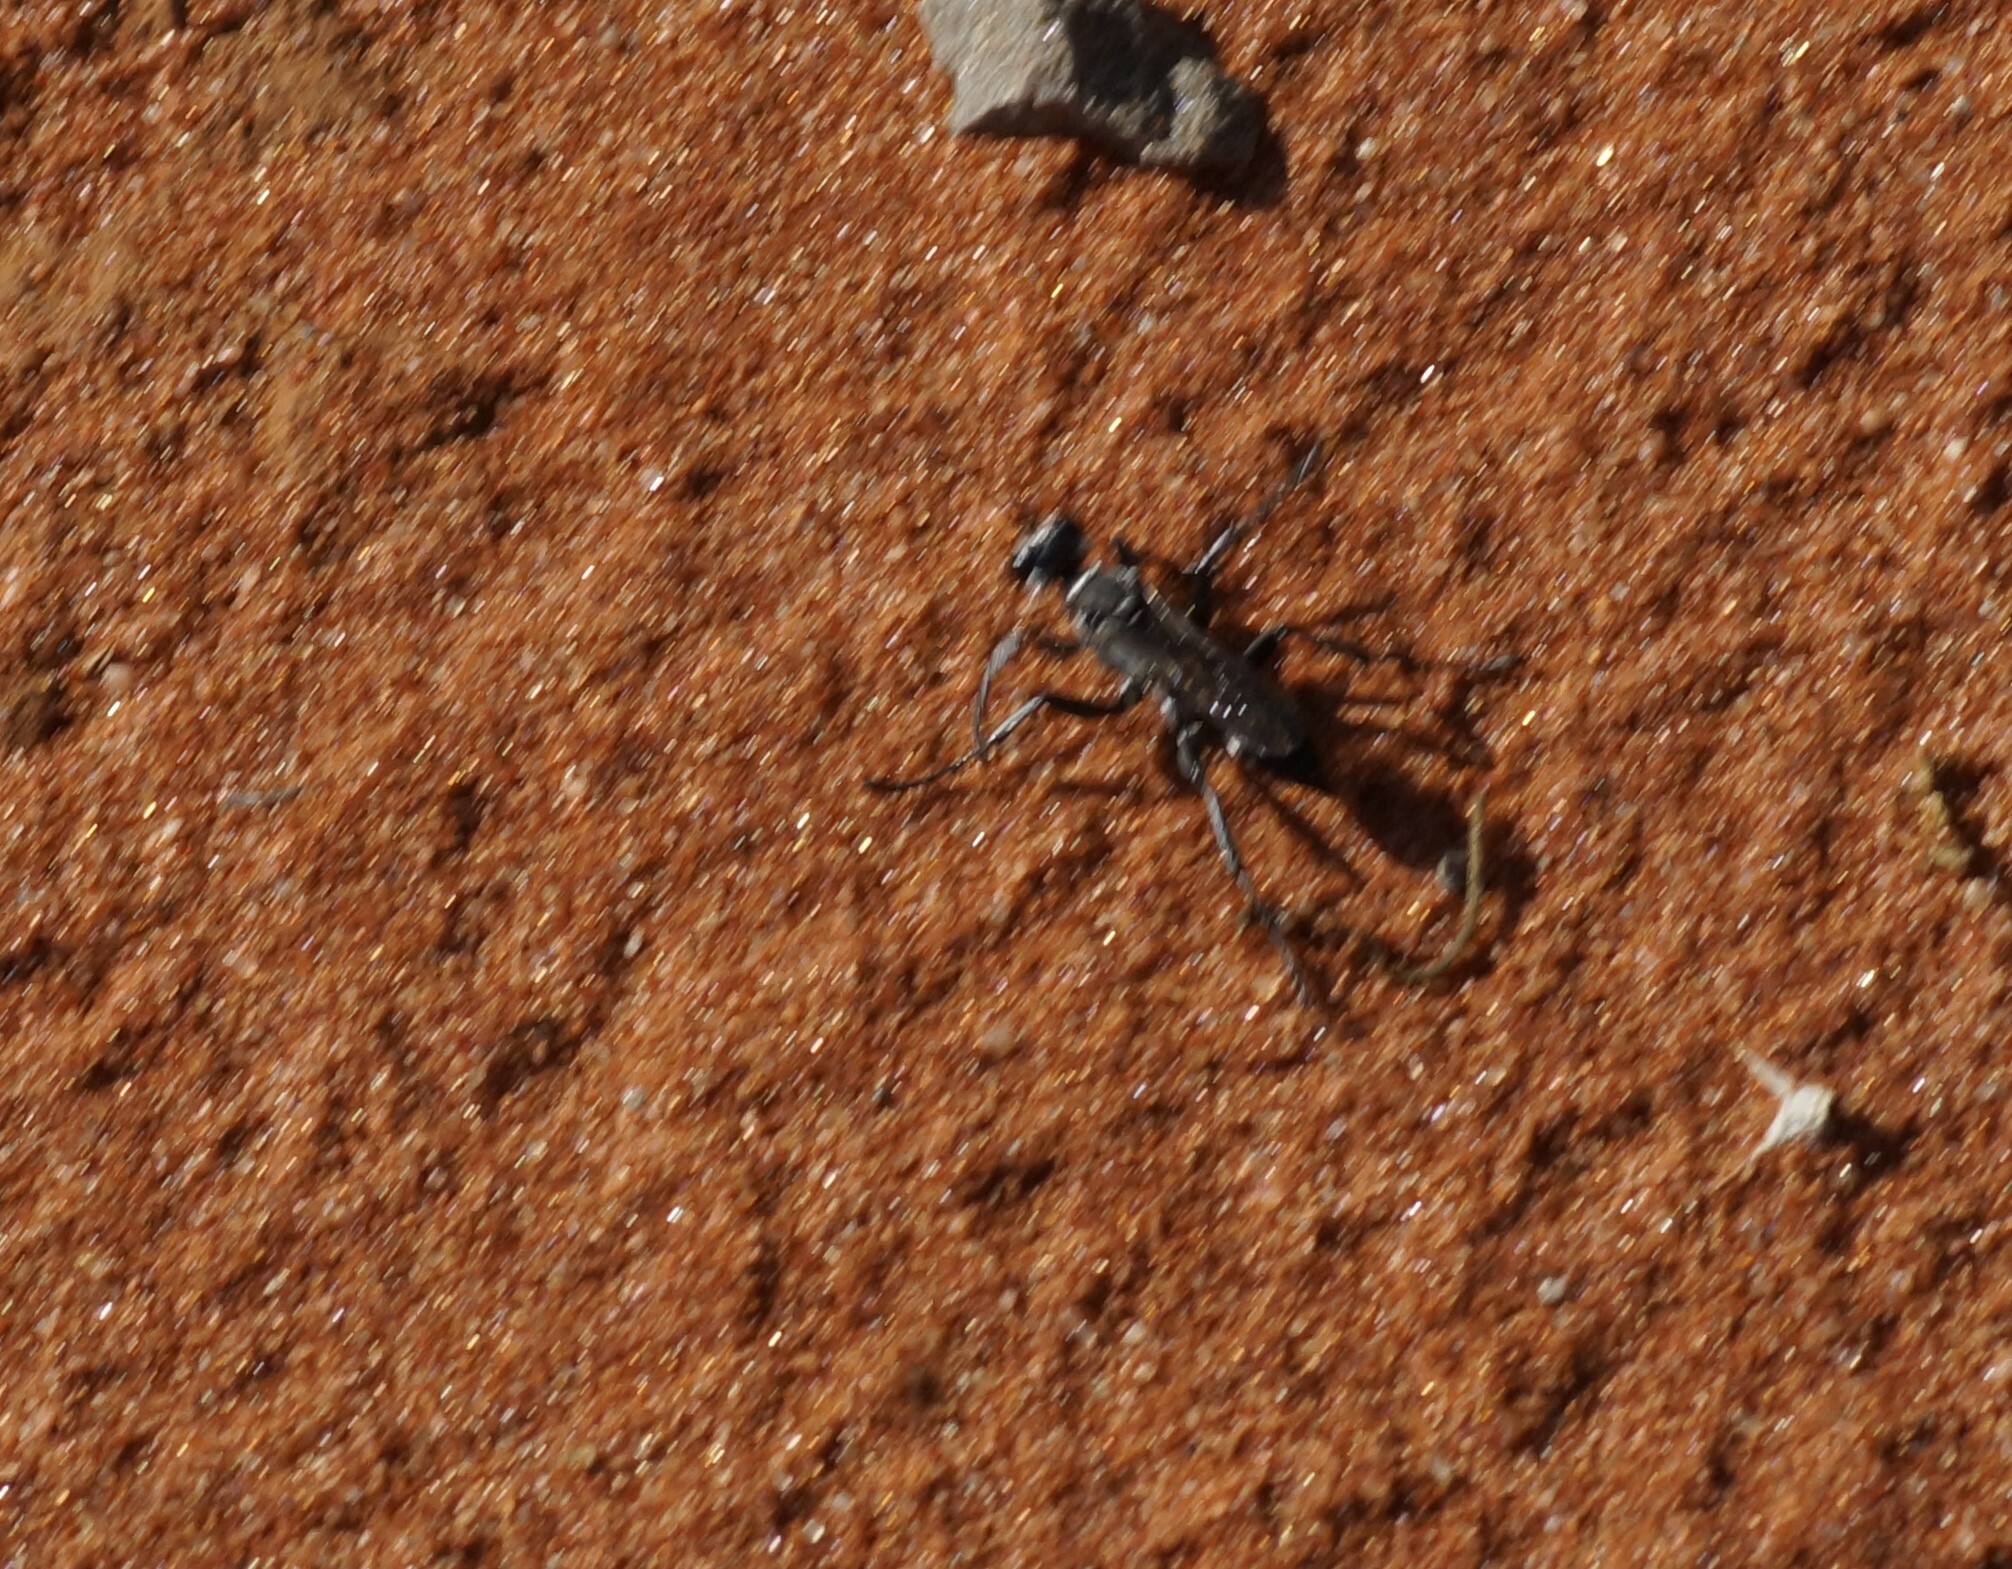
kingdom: Animalia
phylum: Arthropoda
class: Insecta
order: Hymenoptera
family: Sphecidae
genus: Prionyx
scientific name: Prionyx globosus
